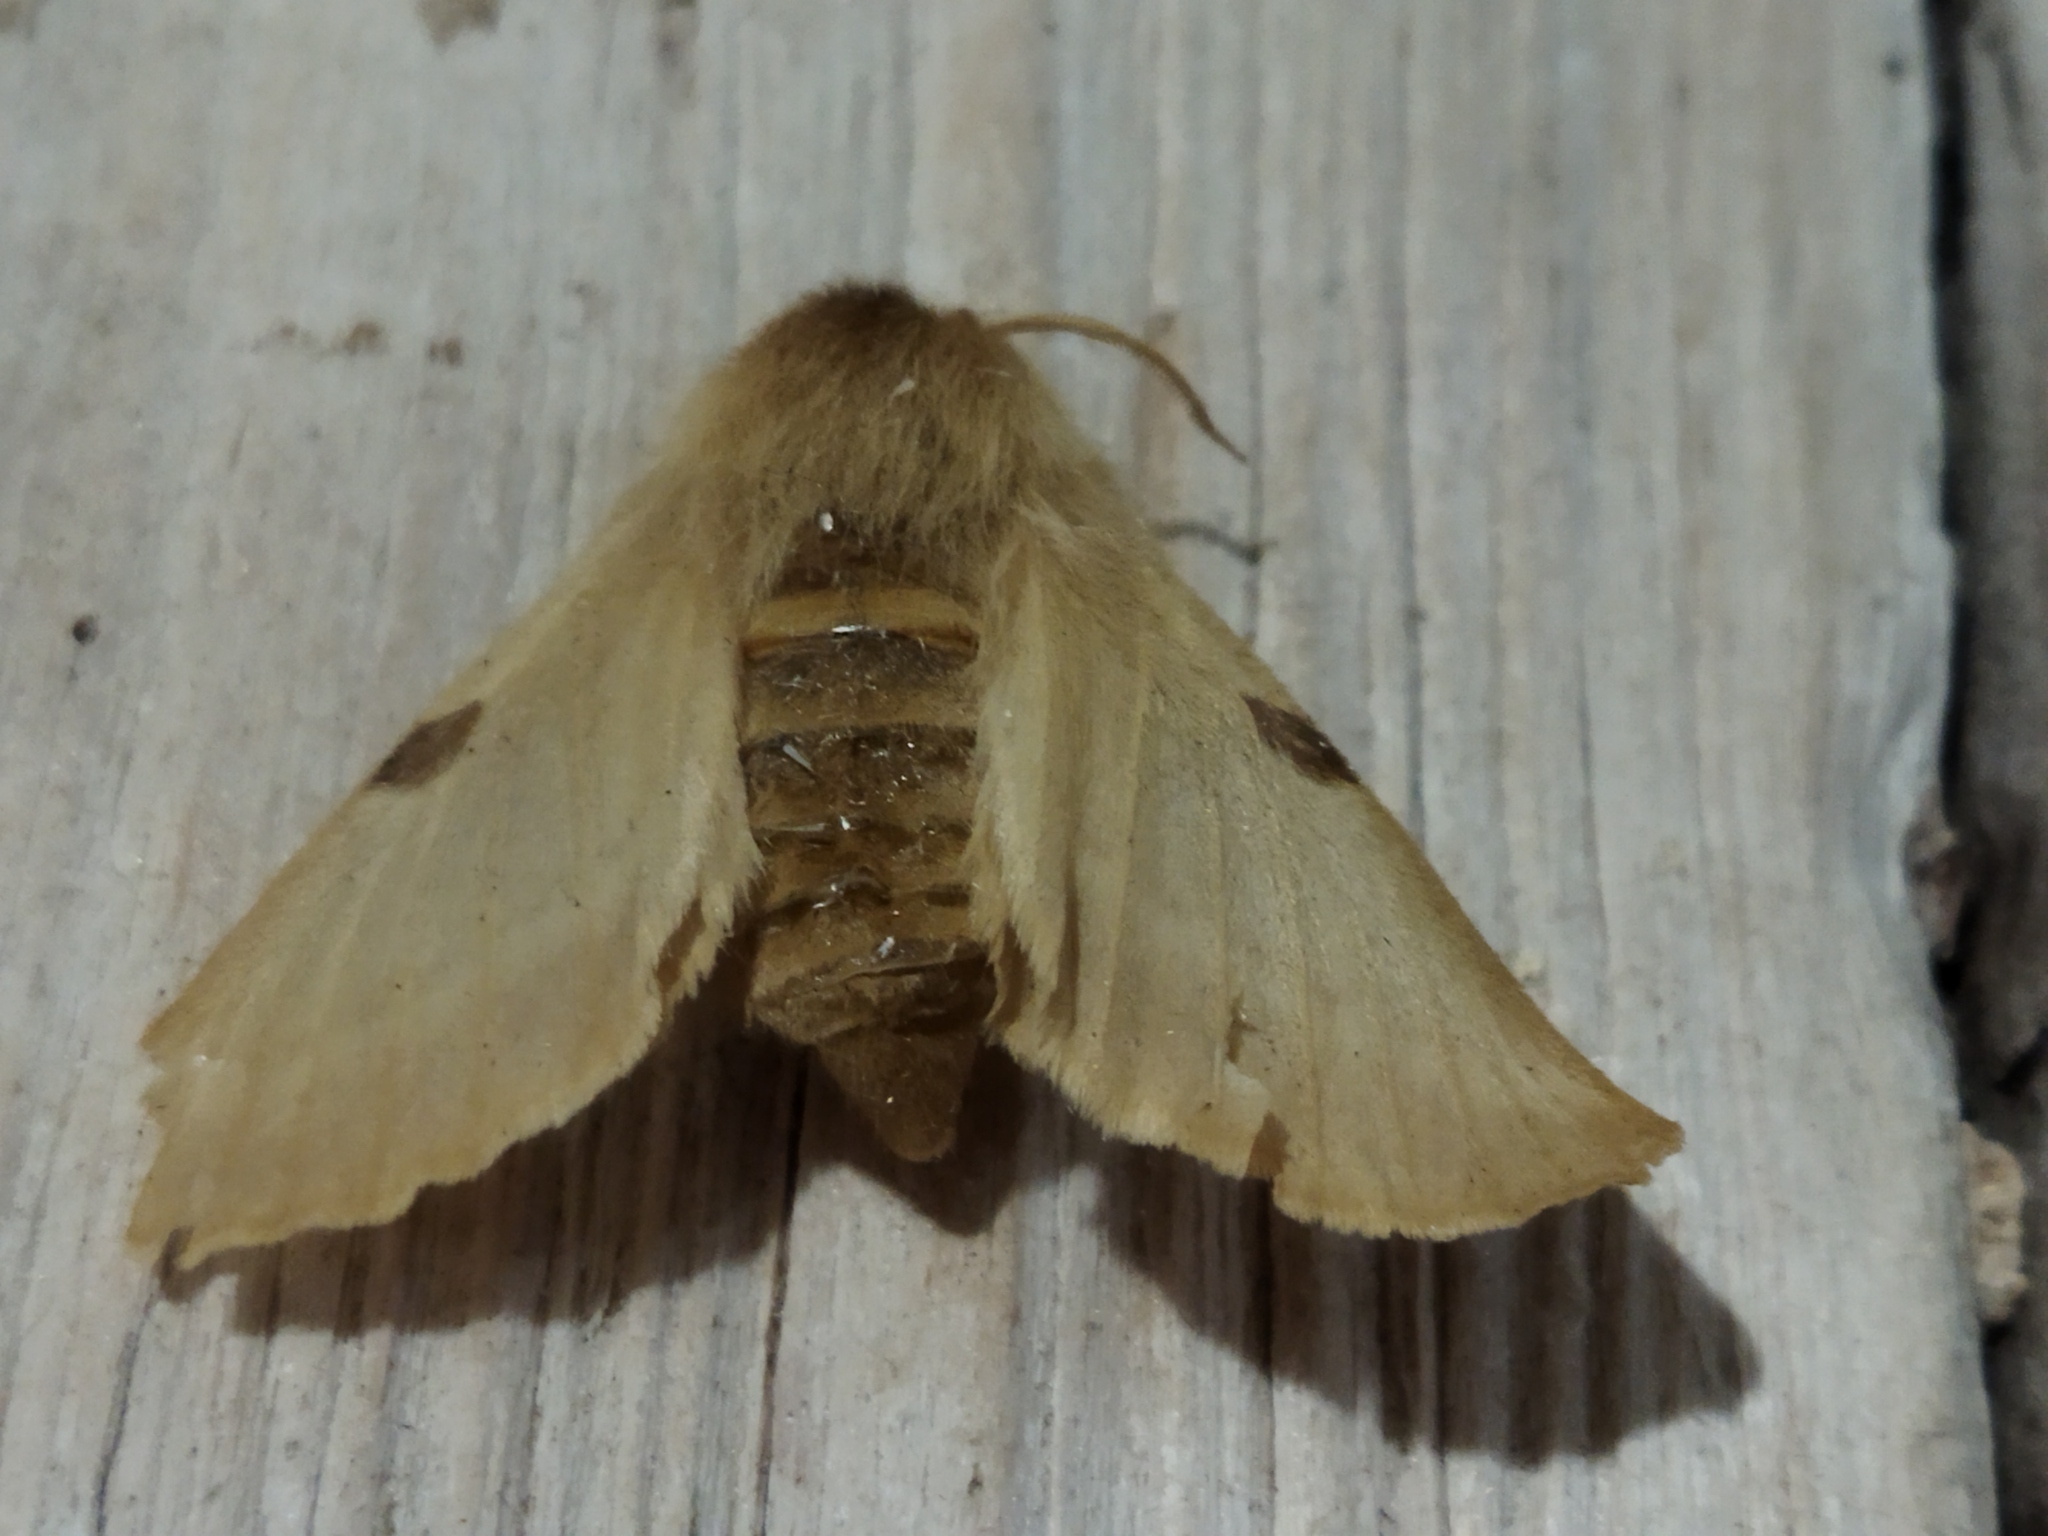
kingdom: Animalia
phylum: Arthropoda
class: Insecta
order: Lepidoptera
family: Brahmaeidae
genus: Lemonia
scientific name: Lemonia balcanica
